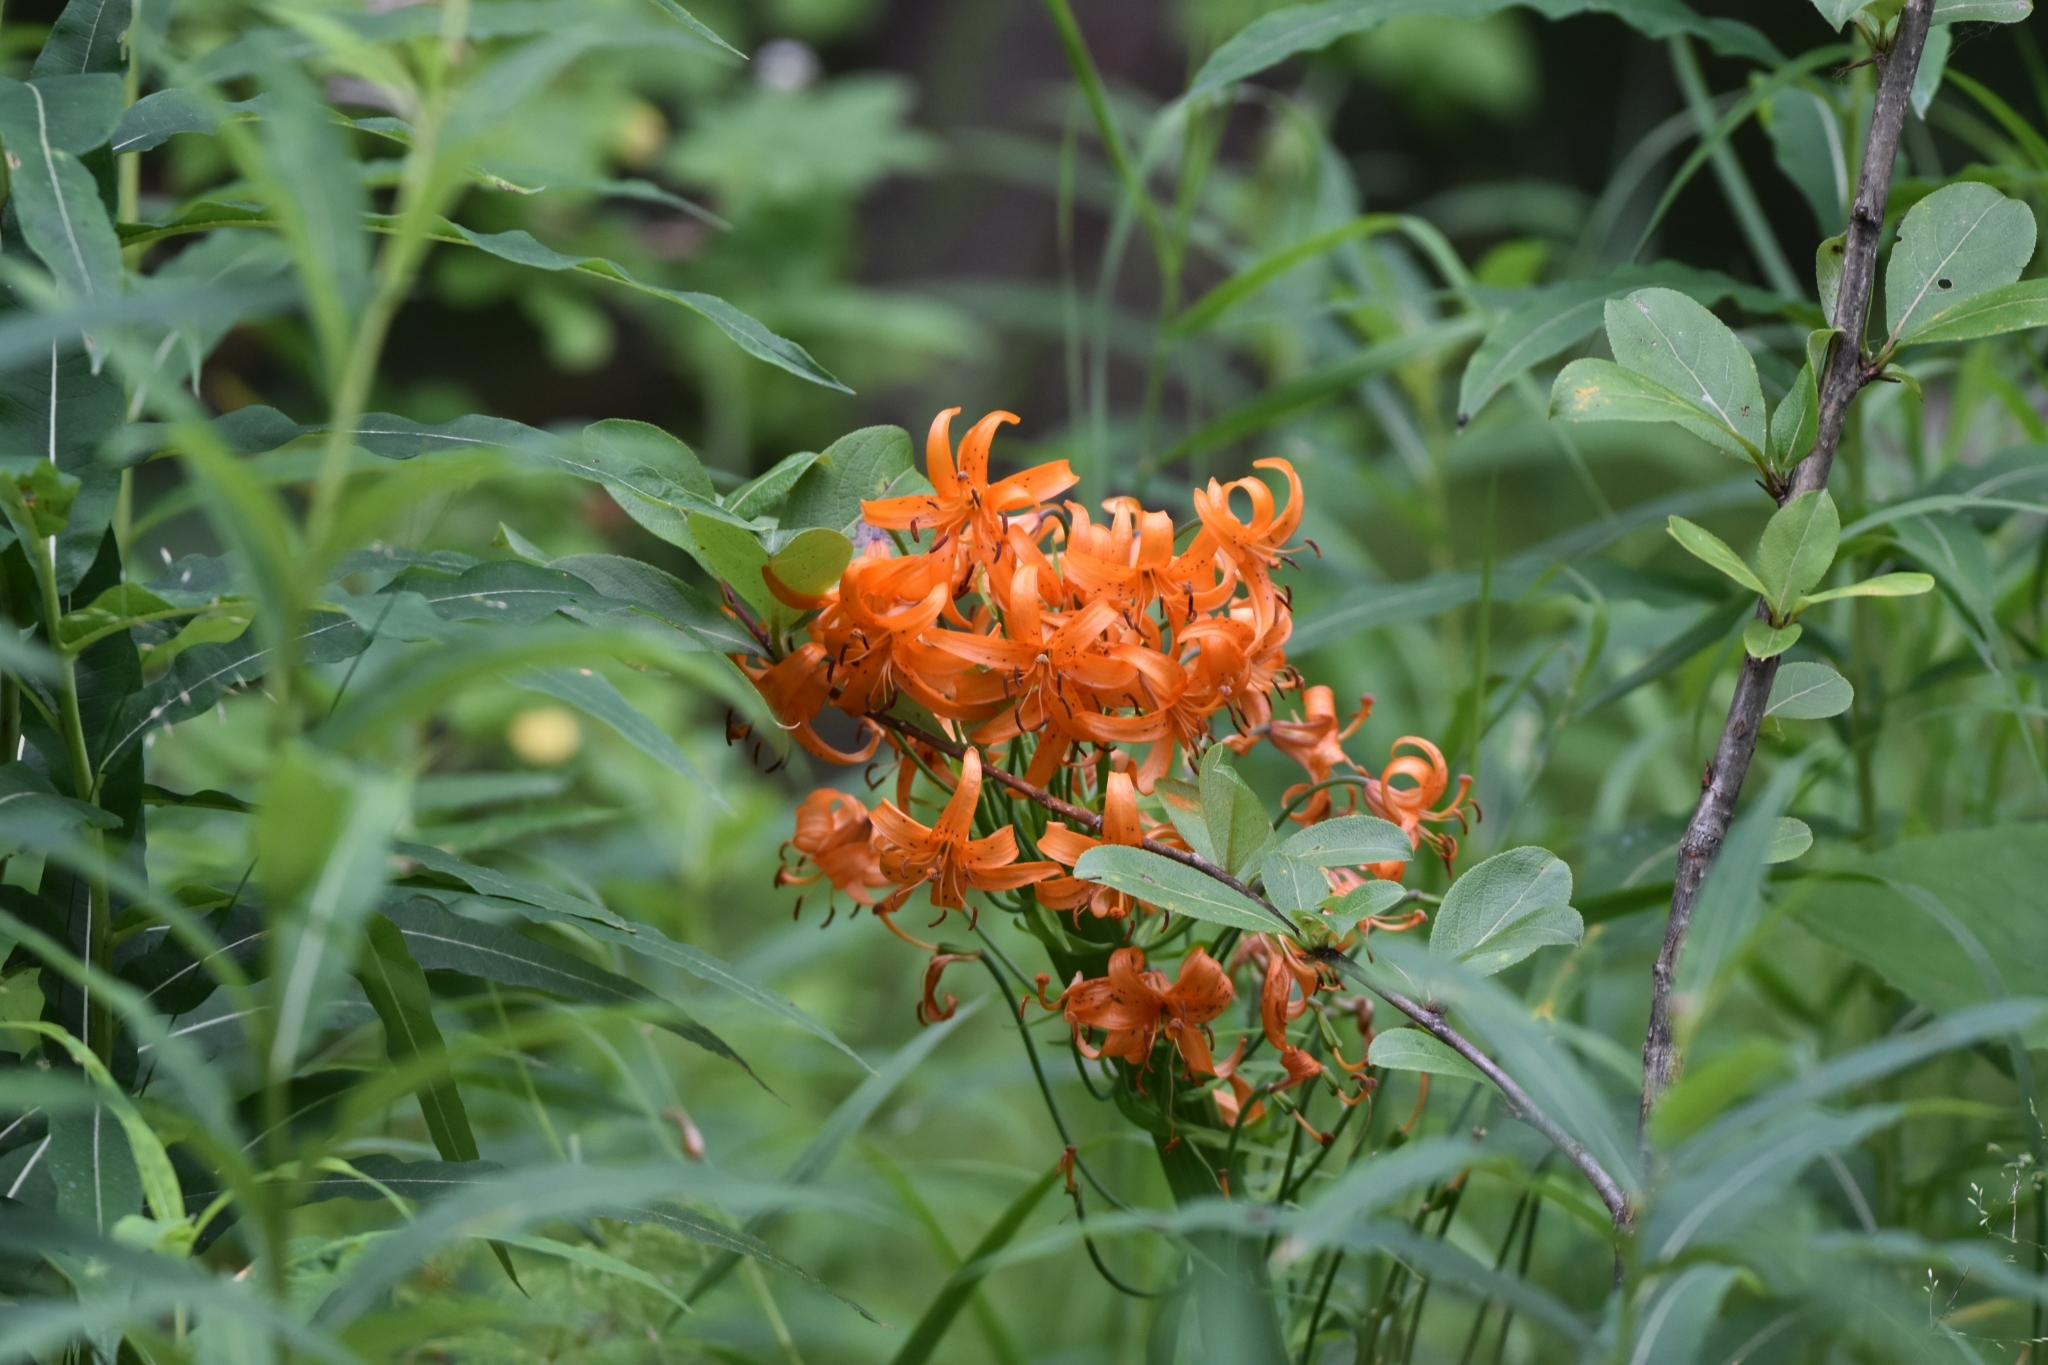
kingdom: Plantae
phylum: Tracheophyta
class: Liliopsida
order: Liliales
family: Liliaceae
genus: Lilium
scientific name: Lilium debile
